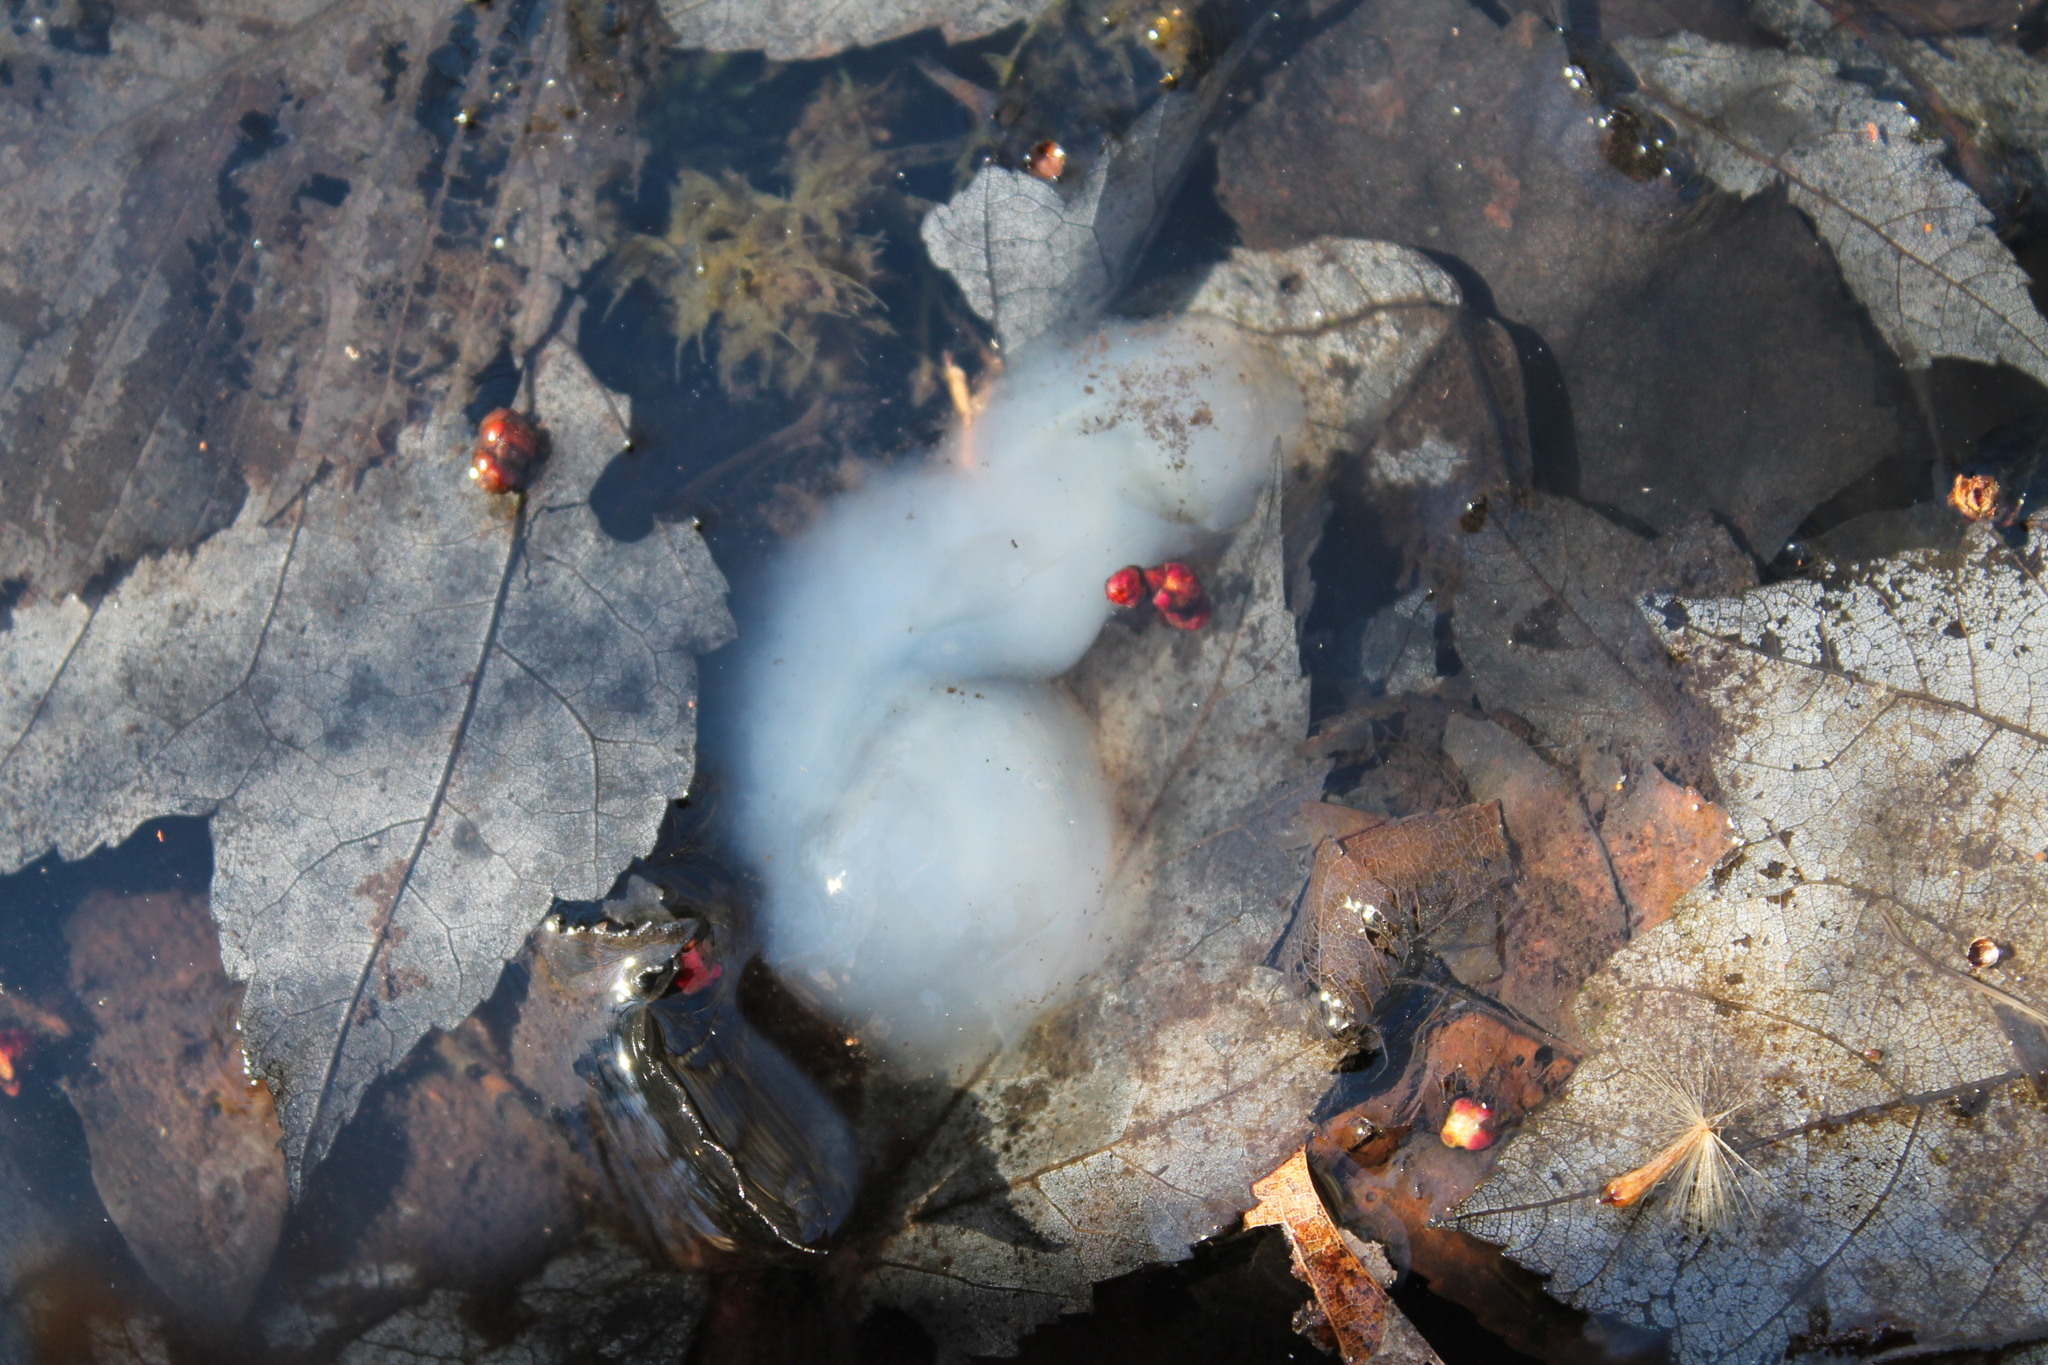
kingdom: Animalia
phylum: Chordata
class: Amphibia
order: Caudata
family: Ambystomatidae
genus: Ambystoma
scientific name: Ambystoma maculatum
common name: Spotted salamander
